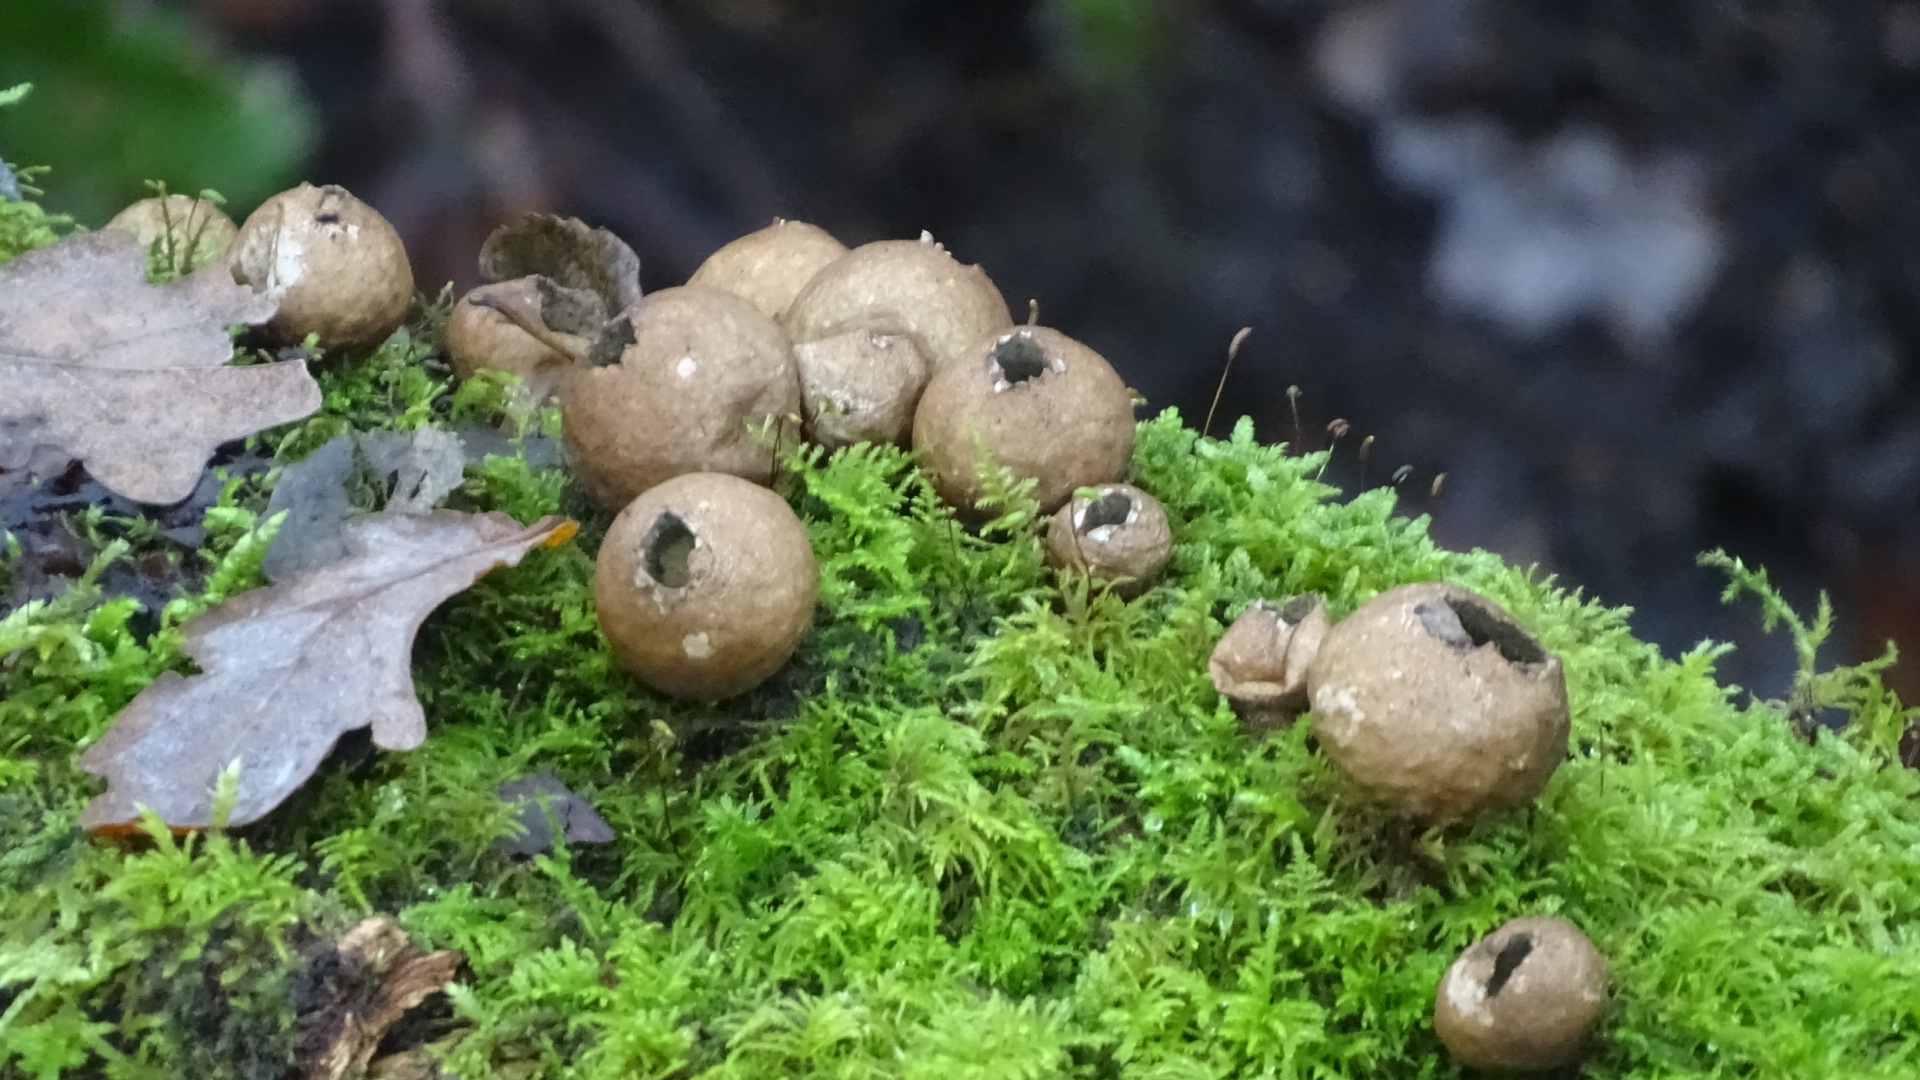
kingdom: Fungi
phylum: Basidiomycota
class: Agaricomycetes
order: Agaricales
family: Lycoperdaceae
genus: Apioperdon
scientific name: Apioperdon pyriforme
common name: Pear-shaped puffball
